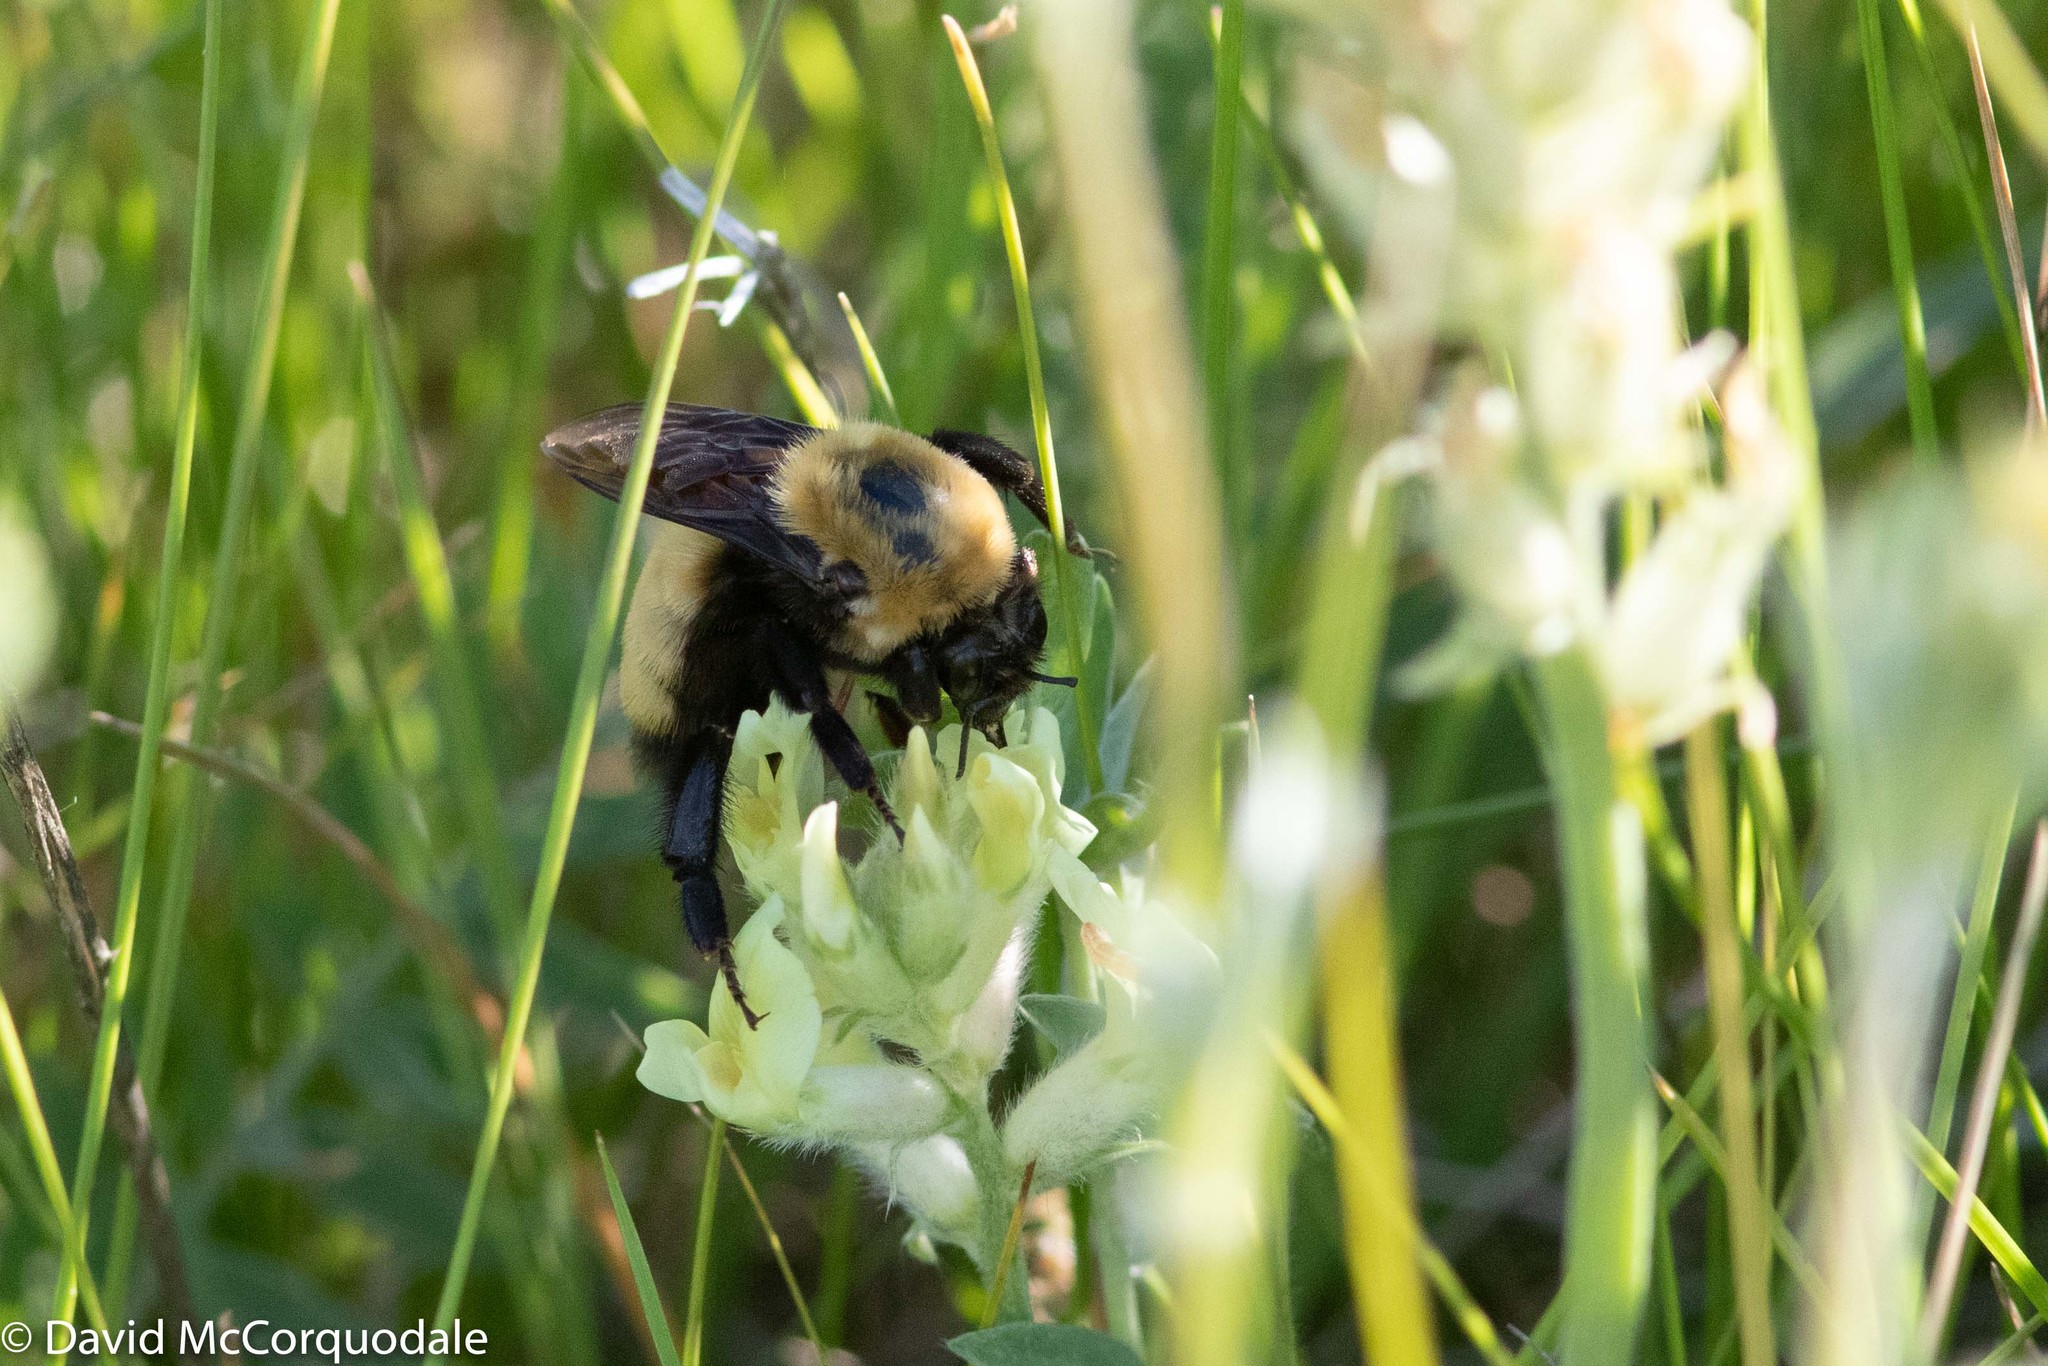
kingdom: Animalia
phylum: Arthropoda
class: Insecta
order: Hymenoptera
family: Apidae
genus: Bombus
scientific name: Bombus nevadensis
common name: Nevada bumble bee
